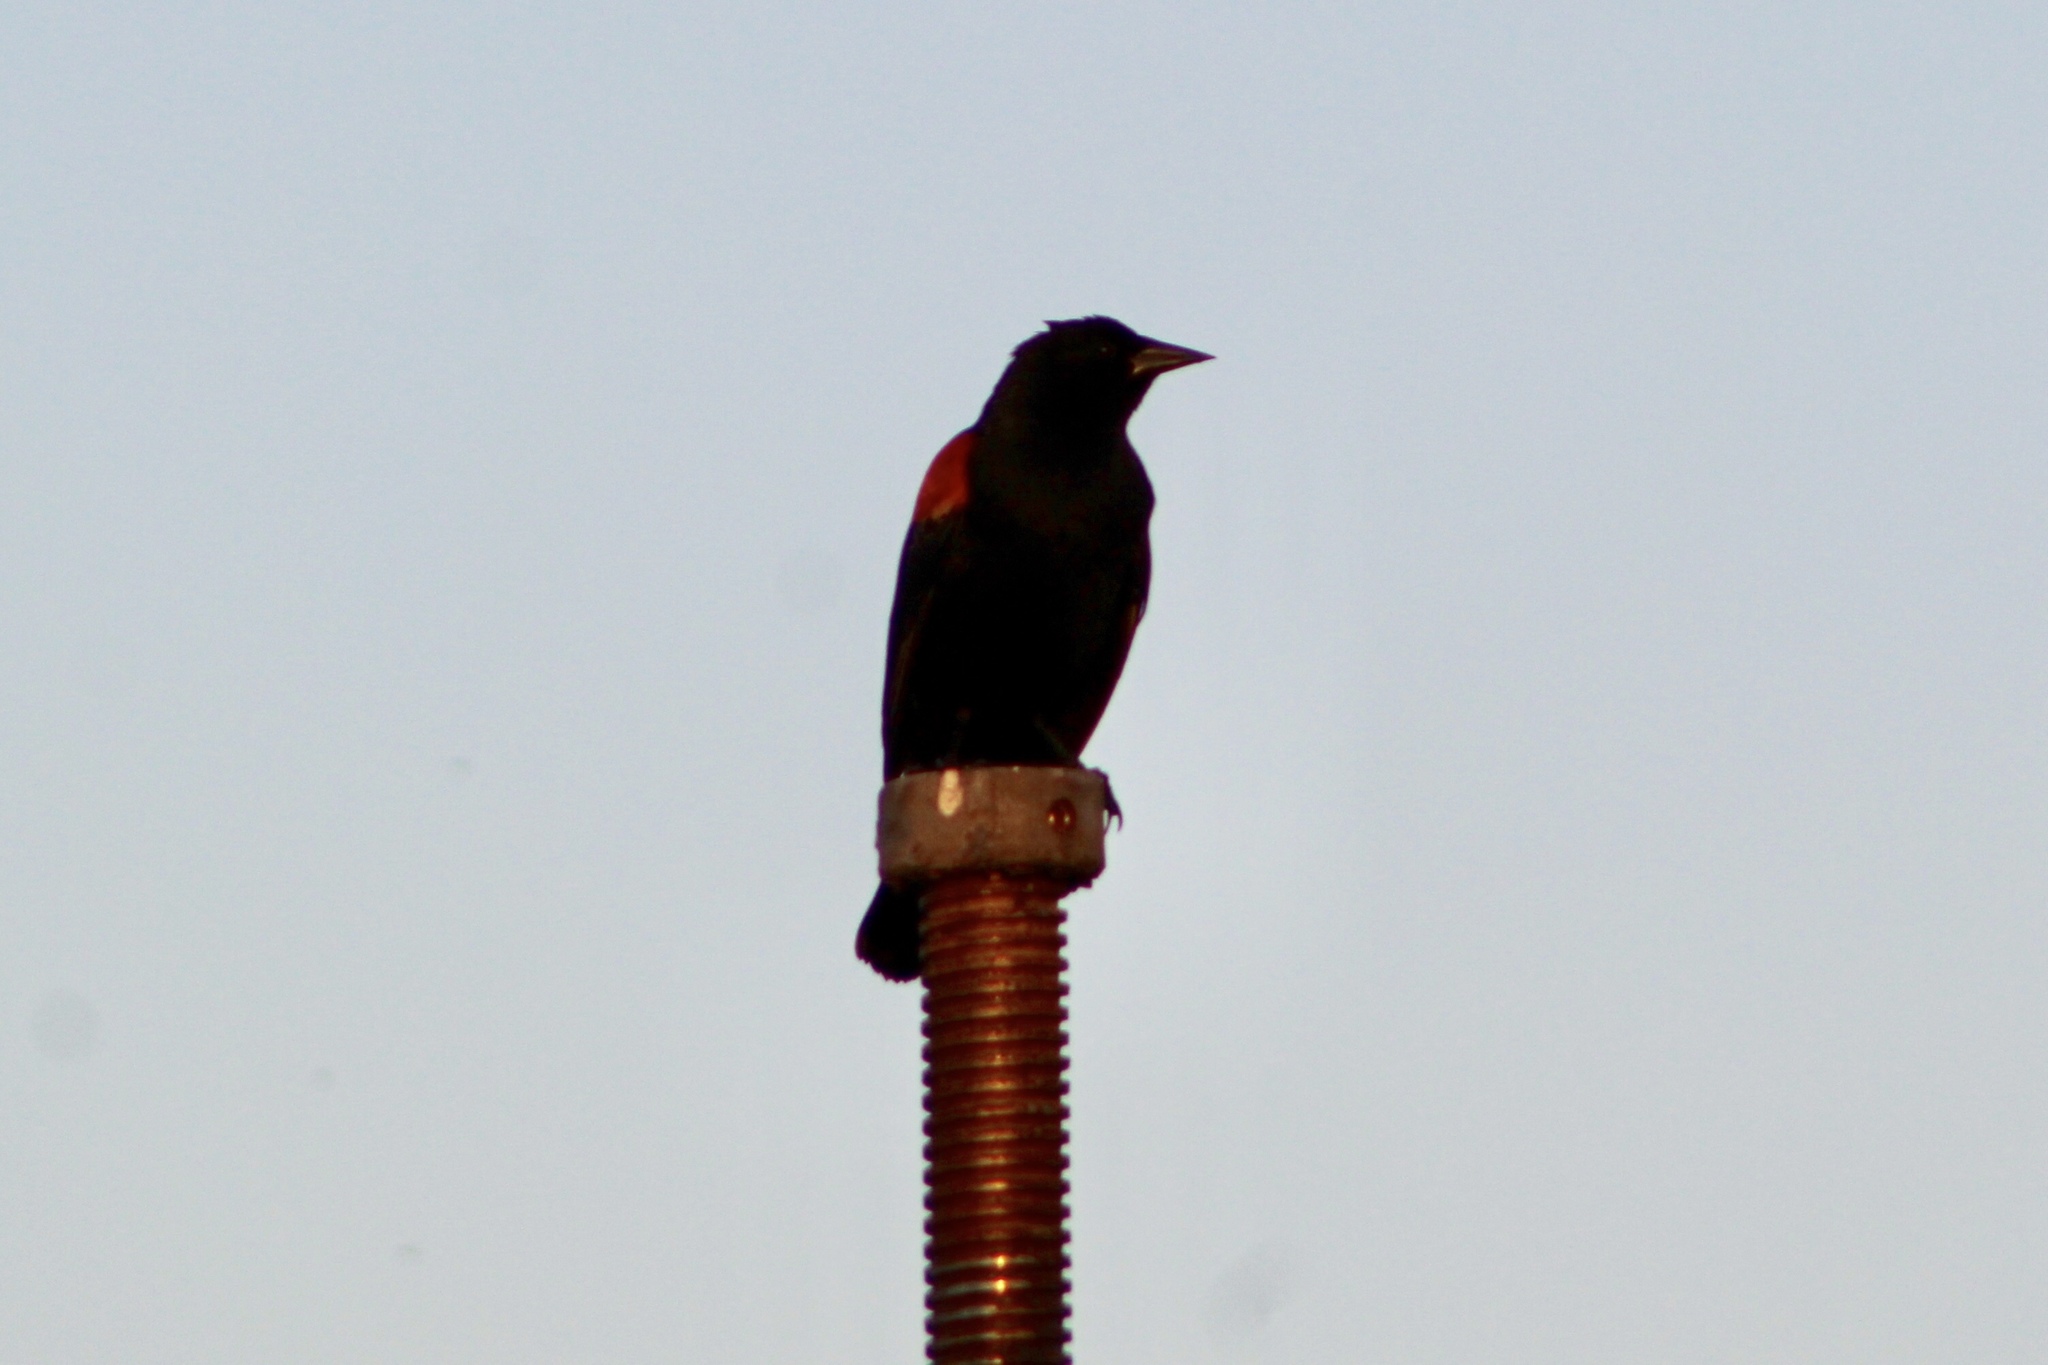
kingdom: Animalia
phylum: Chordata
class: Aves
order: Passeriformes
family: Icteridae
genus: Agelaius
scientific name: Agelaius phoeniceus
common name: Red-winged blackbird
